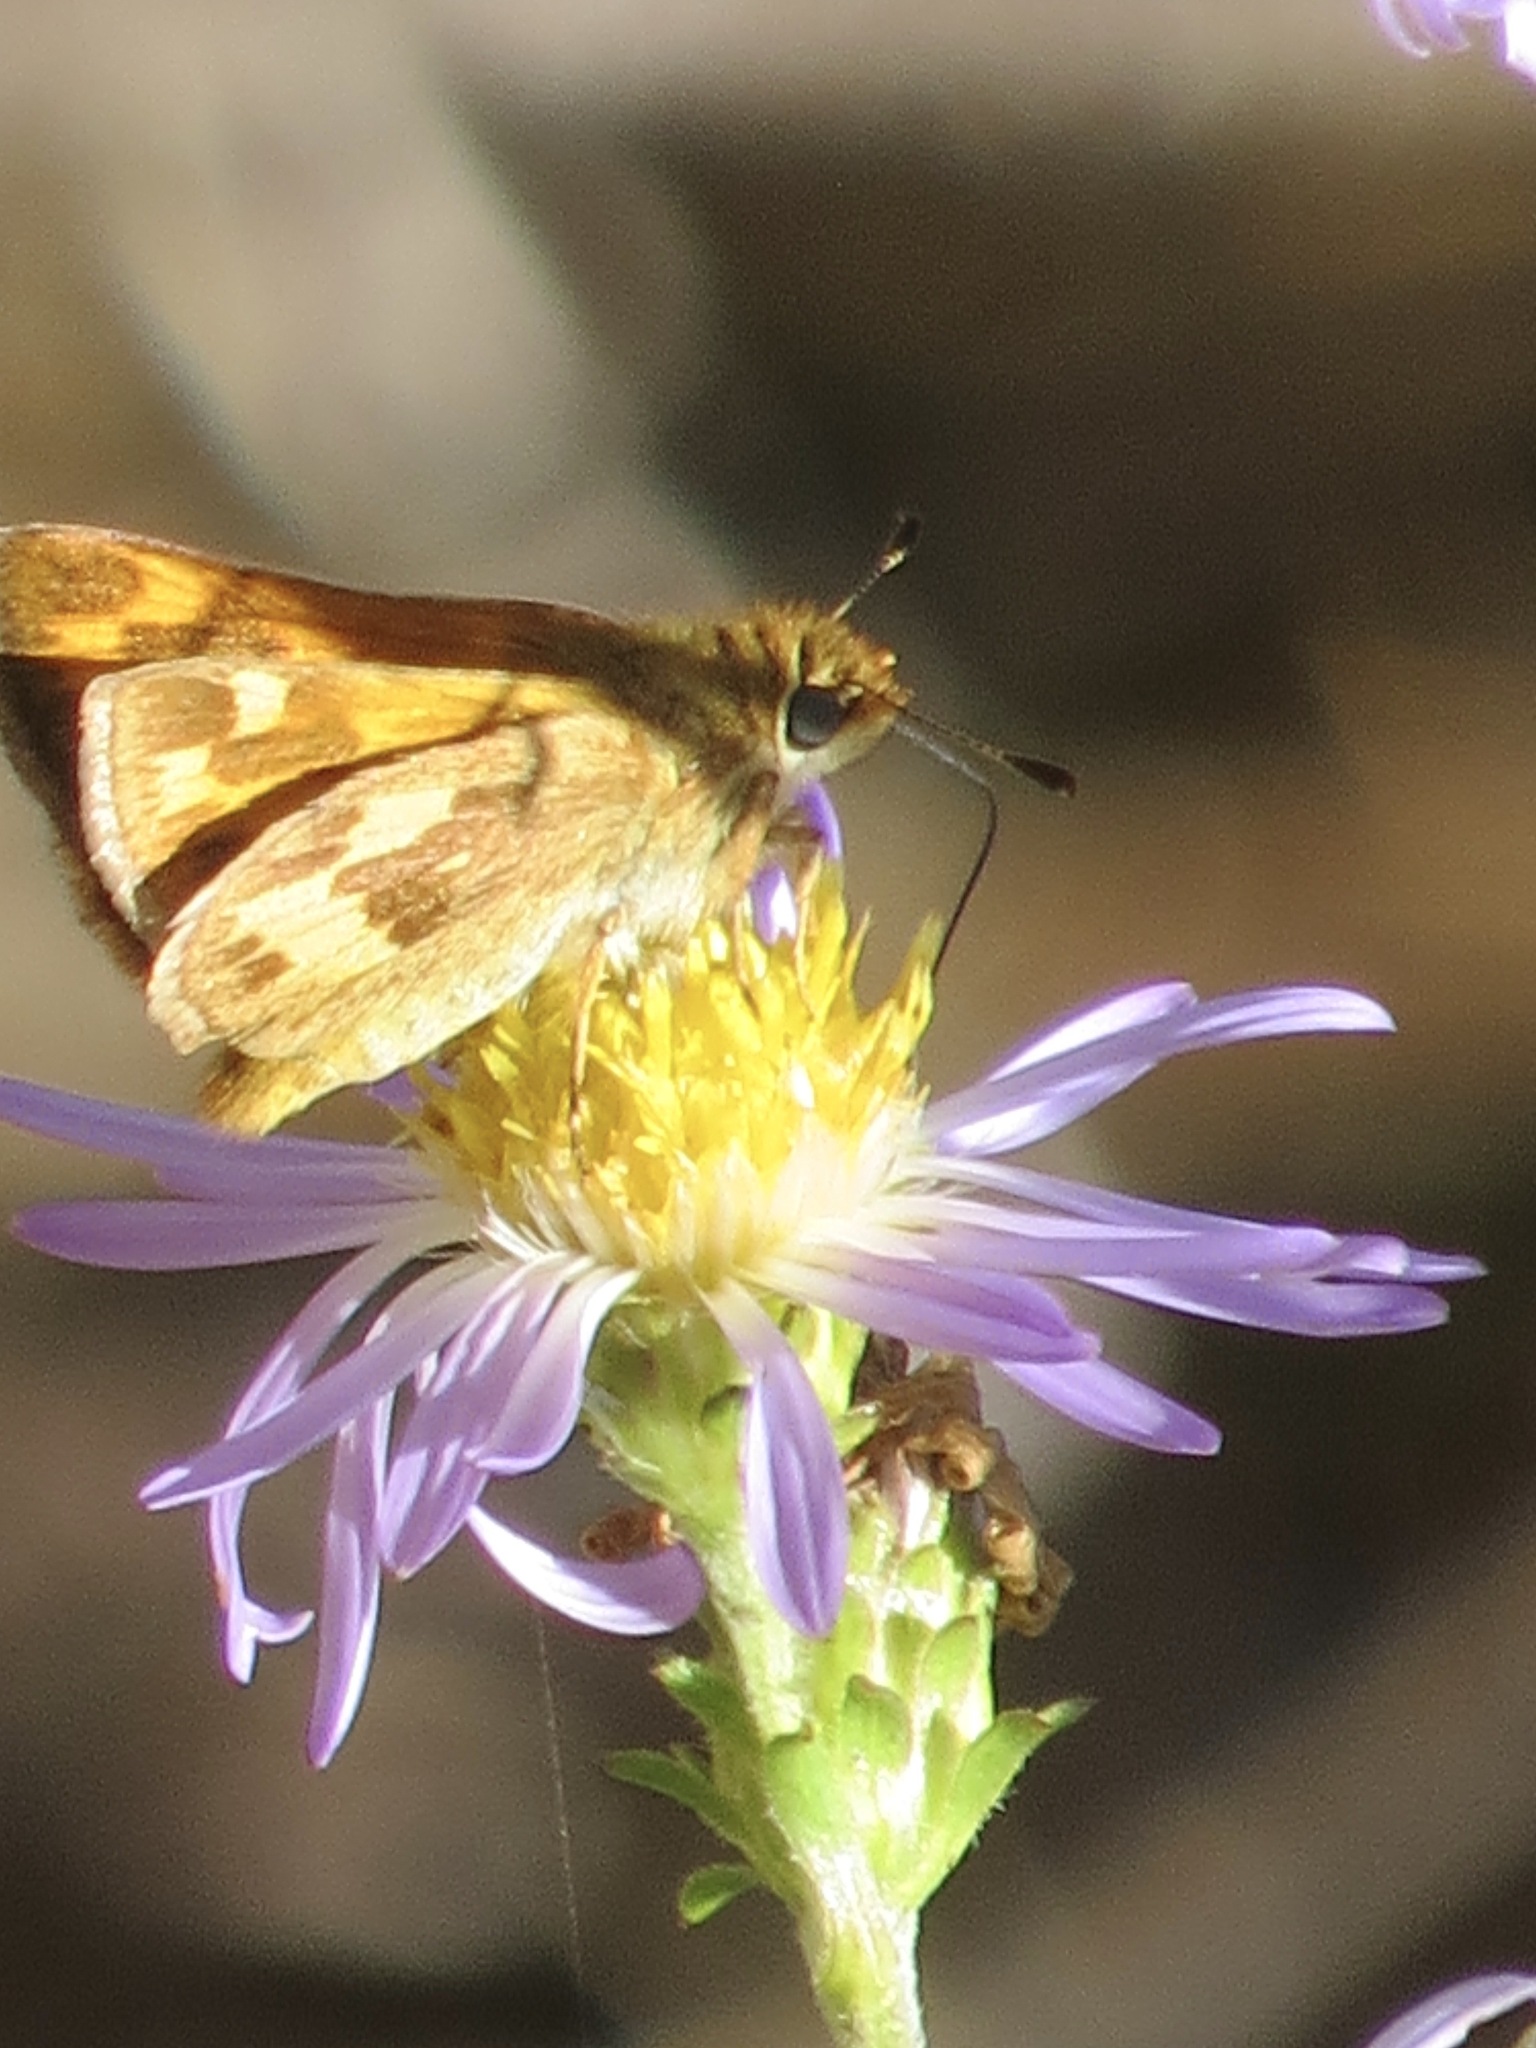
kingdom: Animalia
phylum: Arthropoda
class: Insecta
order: Lepidoptera
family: Hesperiidae
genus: Ochlodes
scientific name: Ochlodes sylvanoides
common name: Woodland skipper
